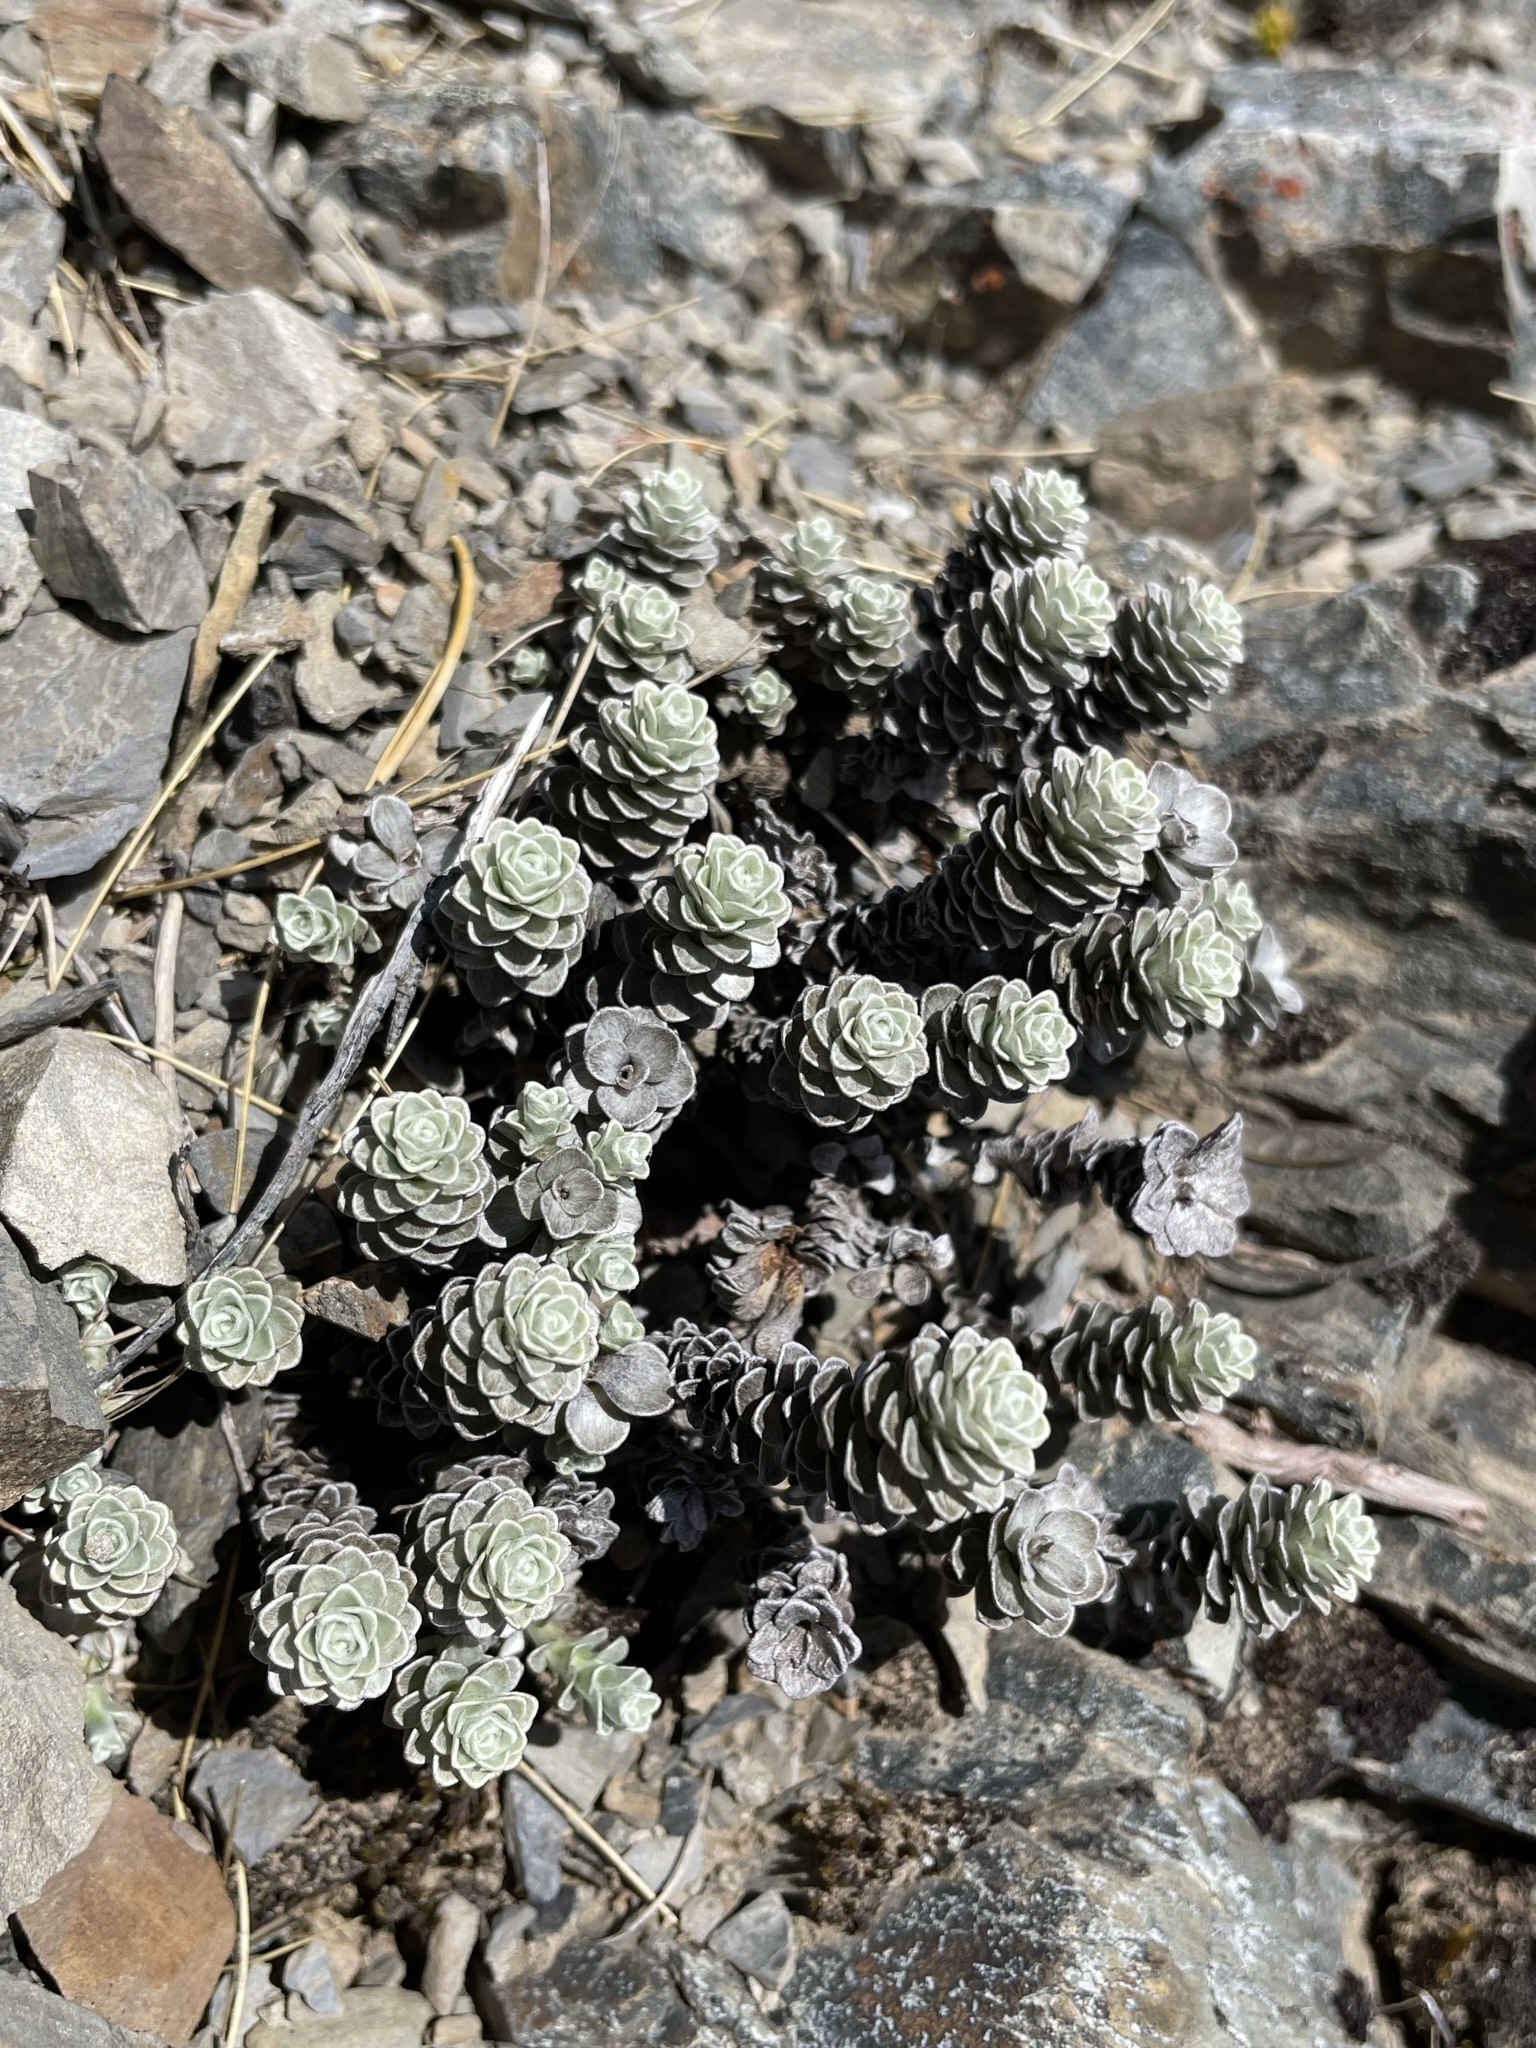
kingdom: Plantae
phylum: Tracheophyta
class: Magnoliopsida
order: Asterales
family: Asteraceae
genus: Leucogenes
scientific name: Leucogenes grandiceps
